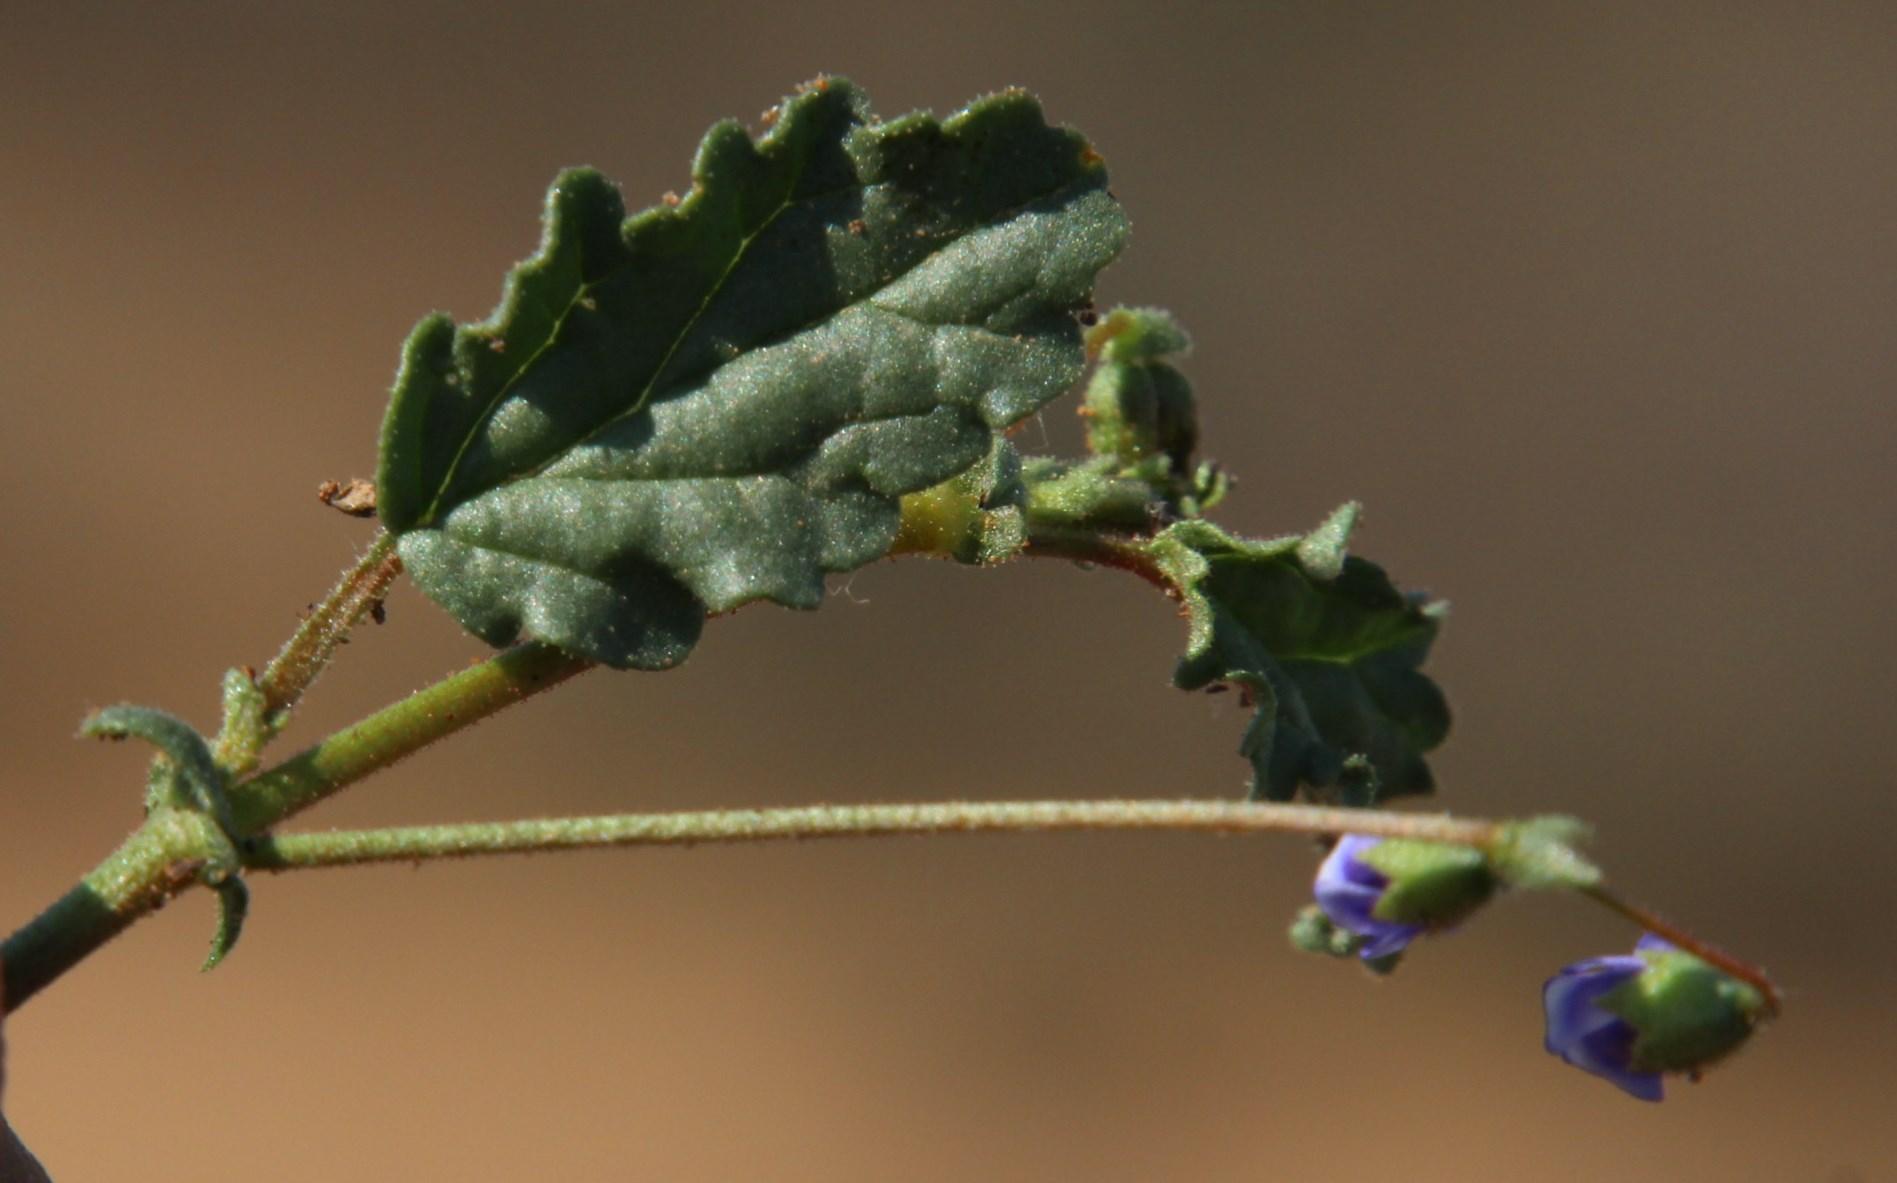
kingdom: Plantae
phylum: Tracheophyta
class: Magnoliopsida
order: Malvales
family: Malvaceae
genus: Hermannia
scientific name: Hermannia cernua
